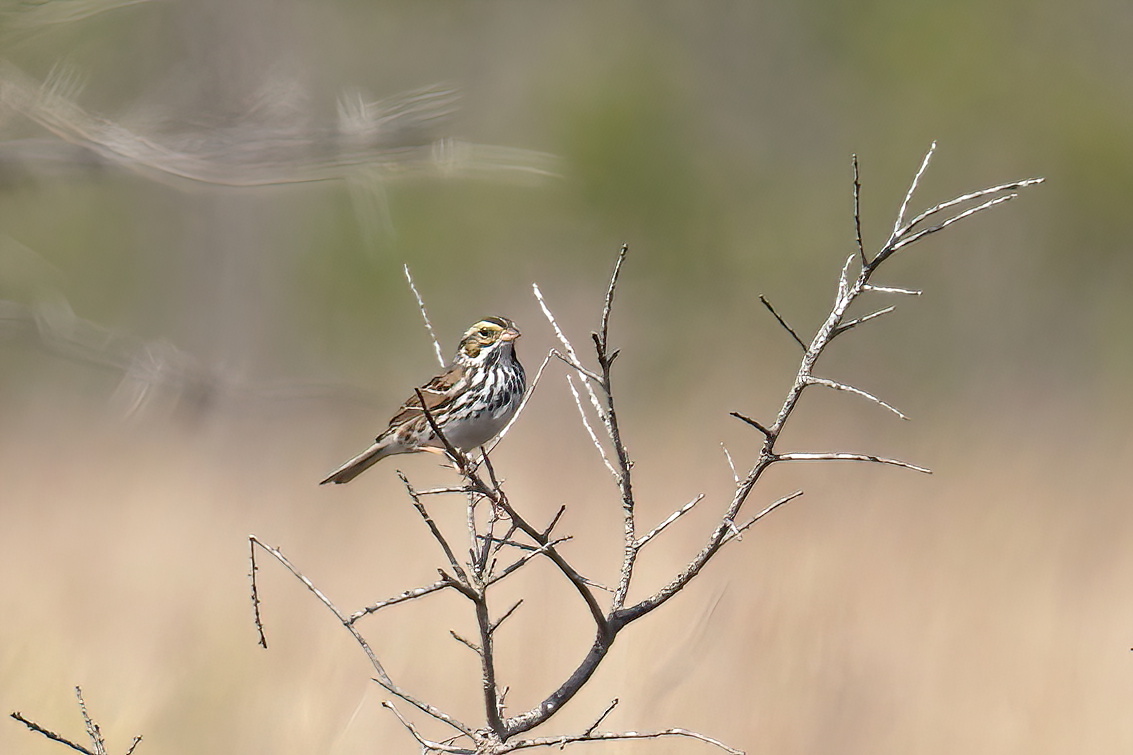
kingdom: Animalia
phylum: Chordata
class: Aves
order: Passeriformes
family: Passerellidae
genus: Passerculus
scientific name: Passerculus sandwichensis
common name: Savannah sparrow
